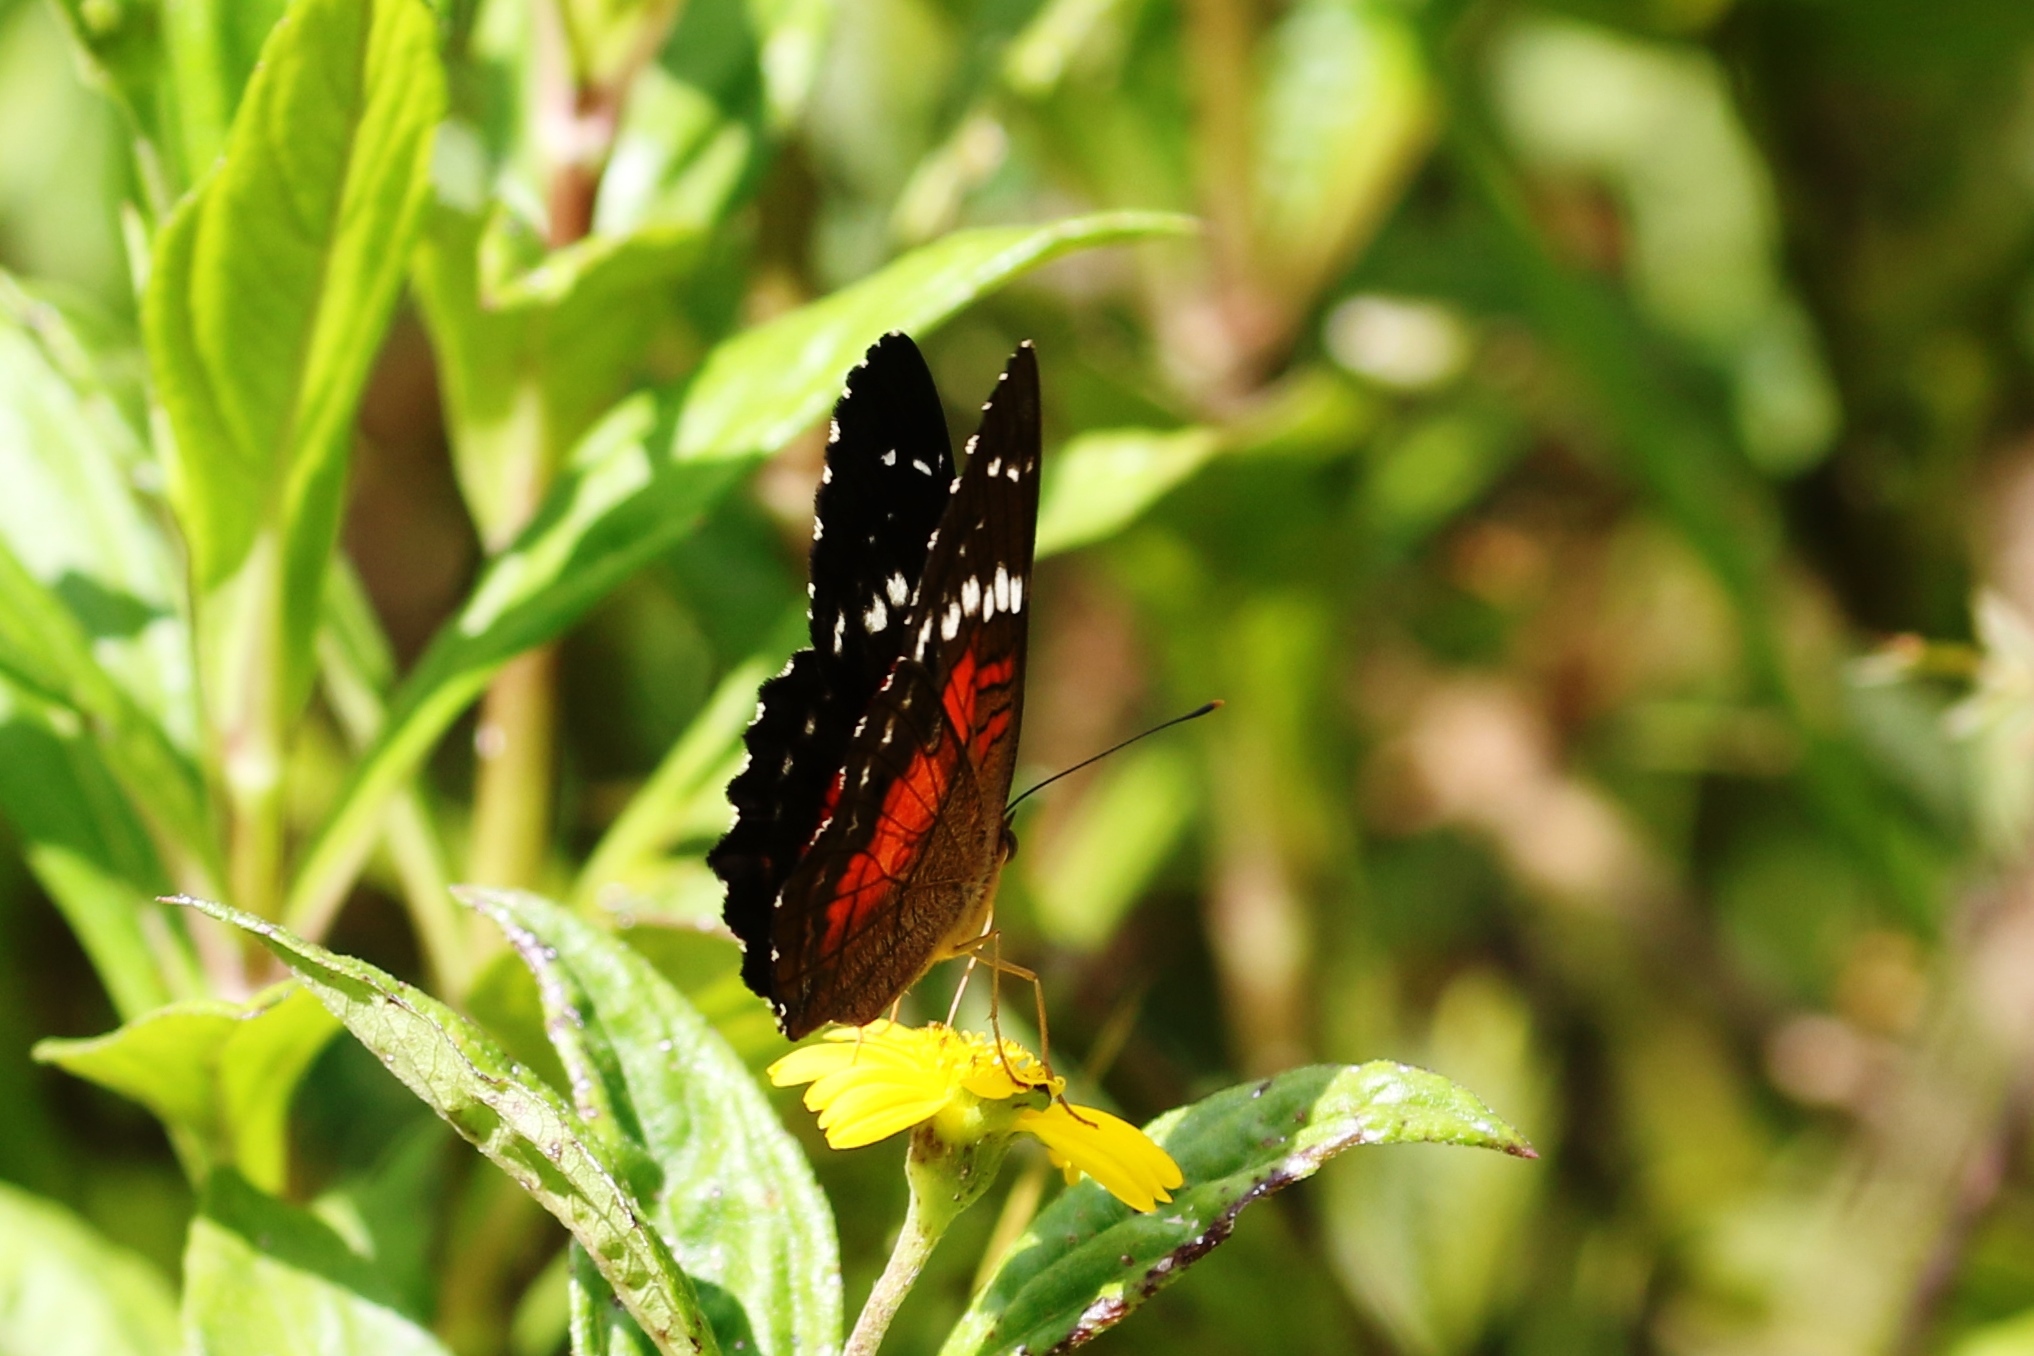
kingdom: Animalia
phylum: Arthropoda
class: Insecta
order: Lepidoptera
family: Nymphalidae
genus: Anartia
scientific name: Anartia amathea
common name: Red peacock
